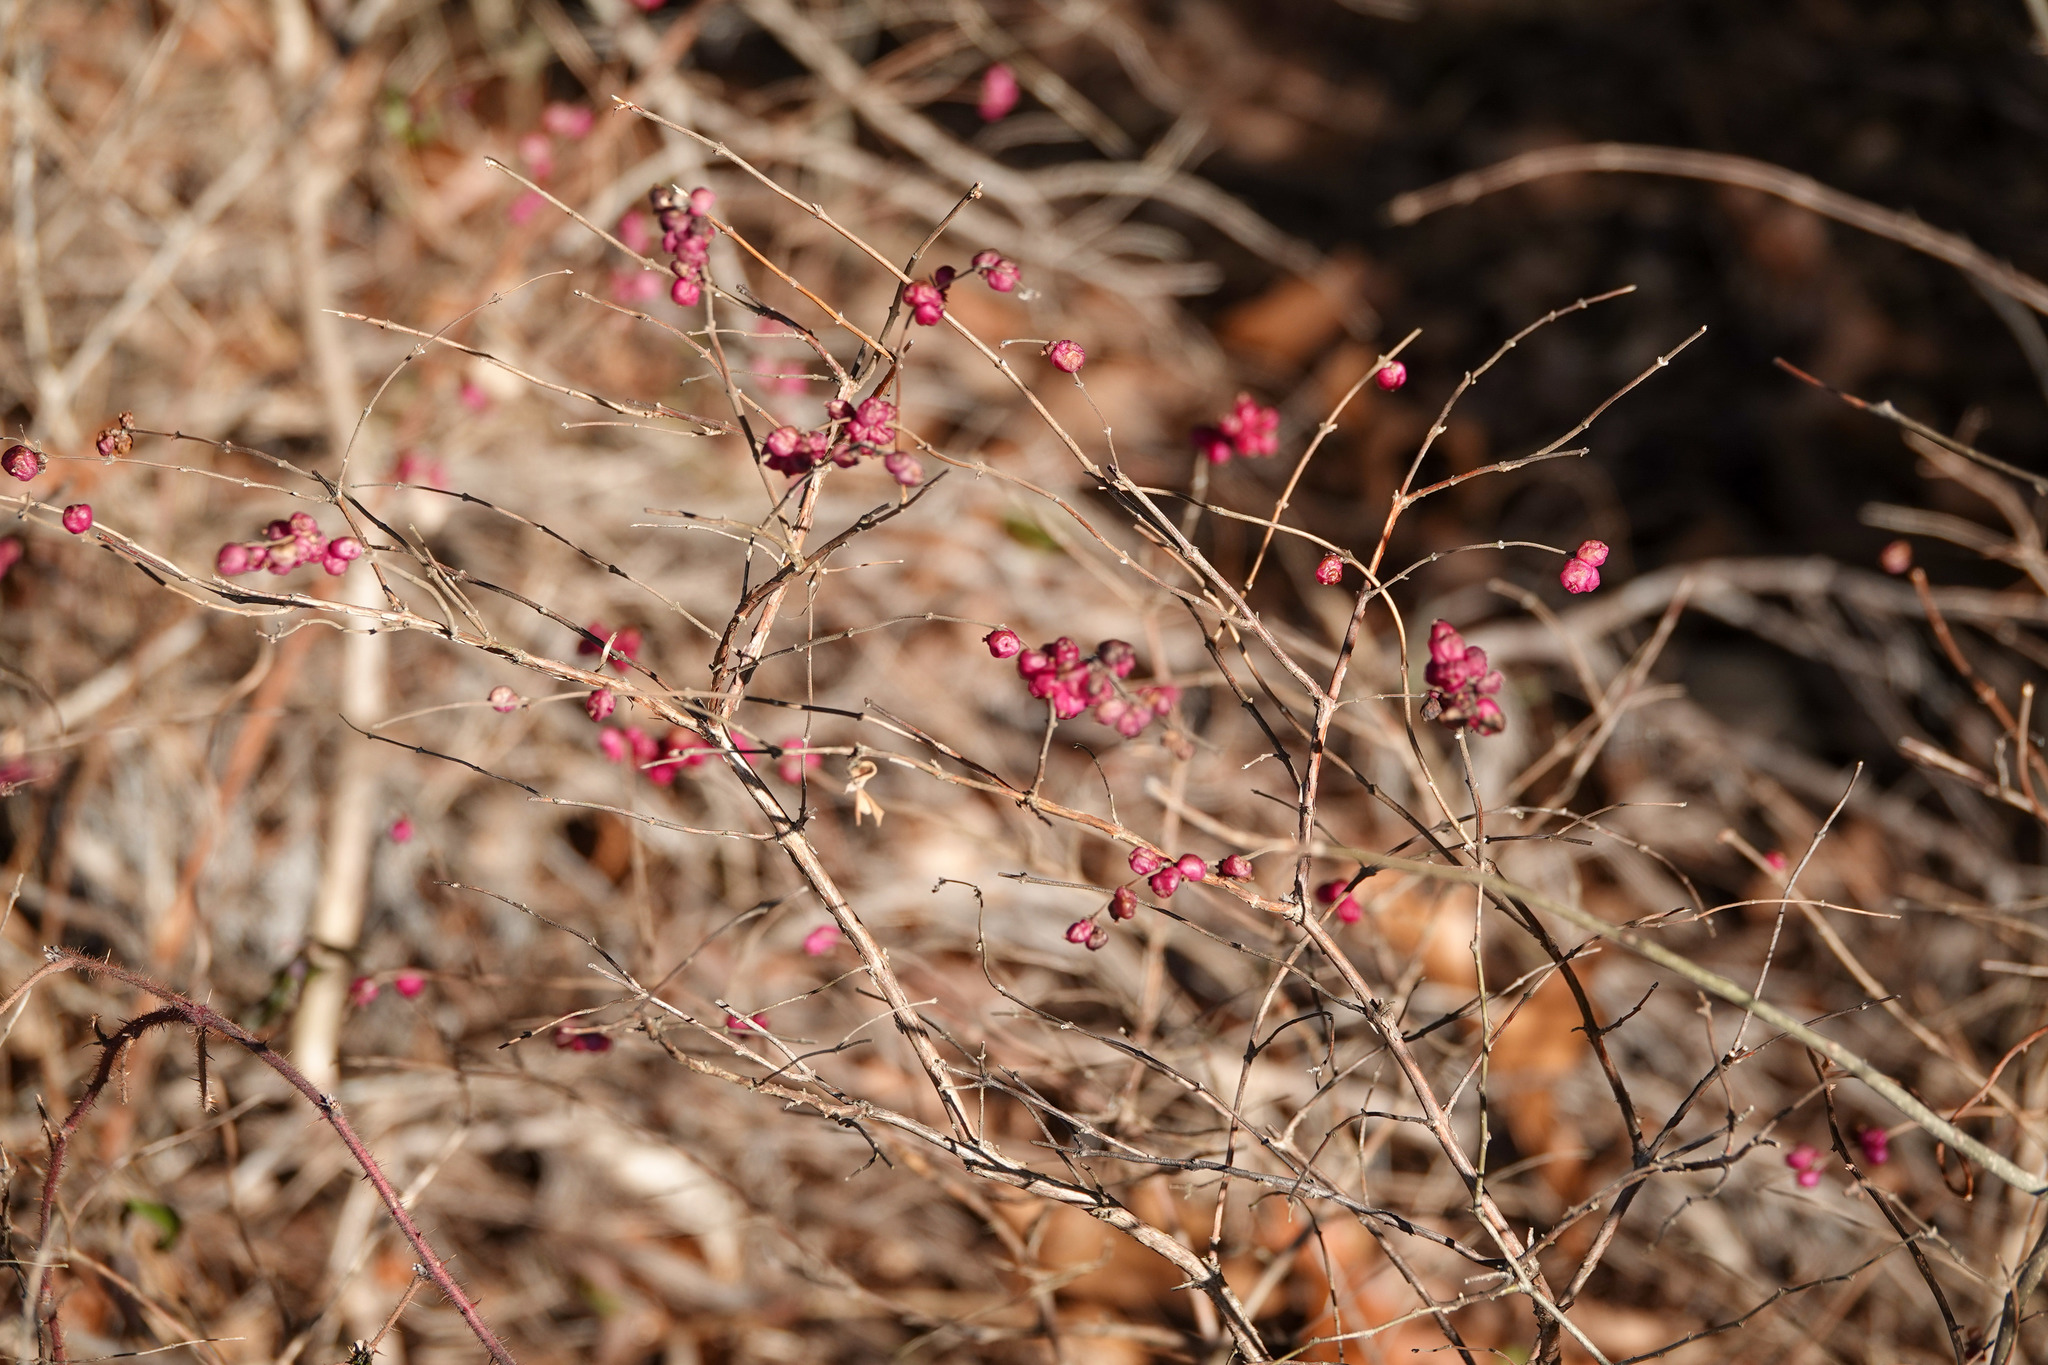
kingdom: Plantae
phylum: Tracheophyta
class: Magnoliopsida
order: Dipsacales
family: Caprifoliaceae
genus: Symphoricarpos
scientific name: Symphoricarpos orbiculatus
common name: Coralberry
